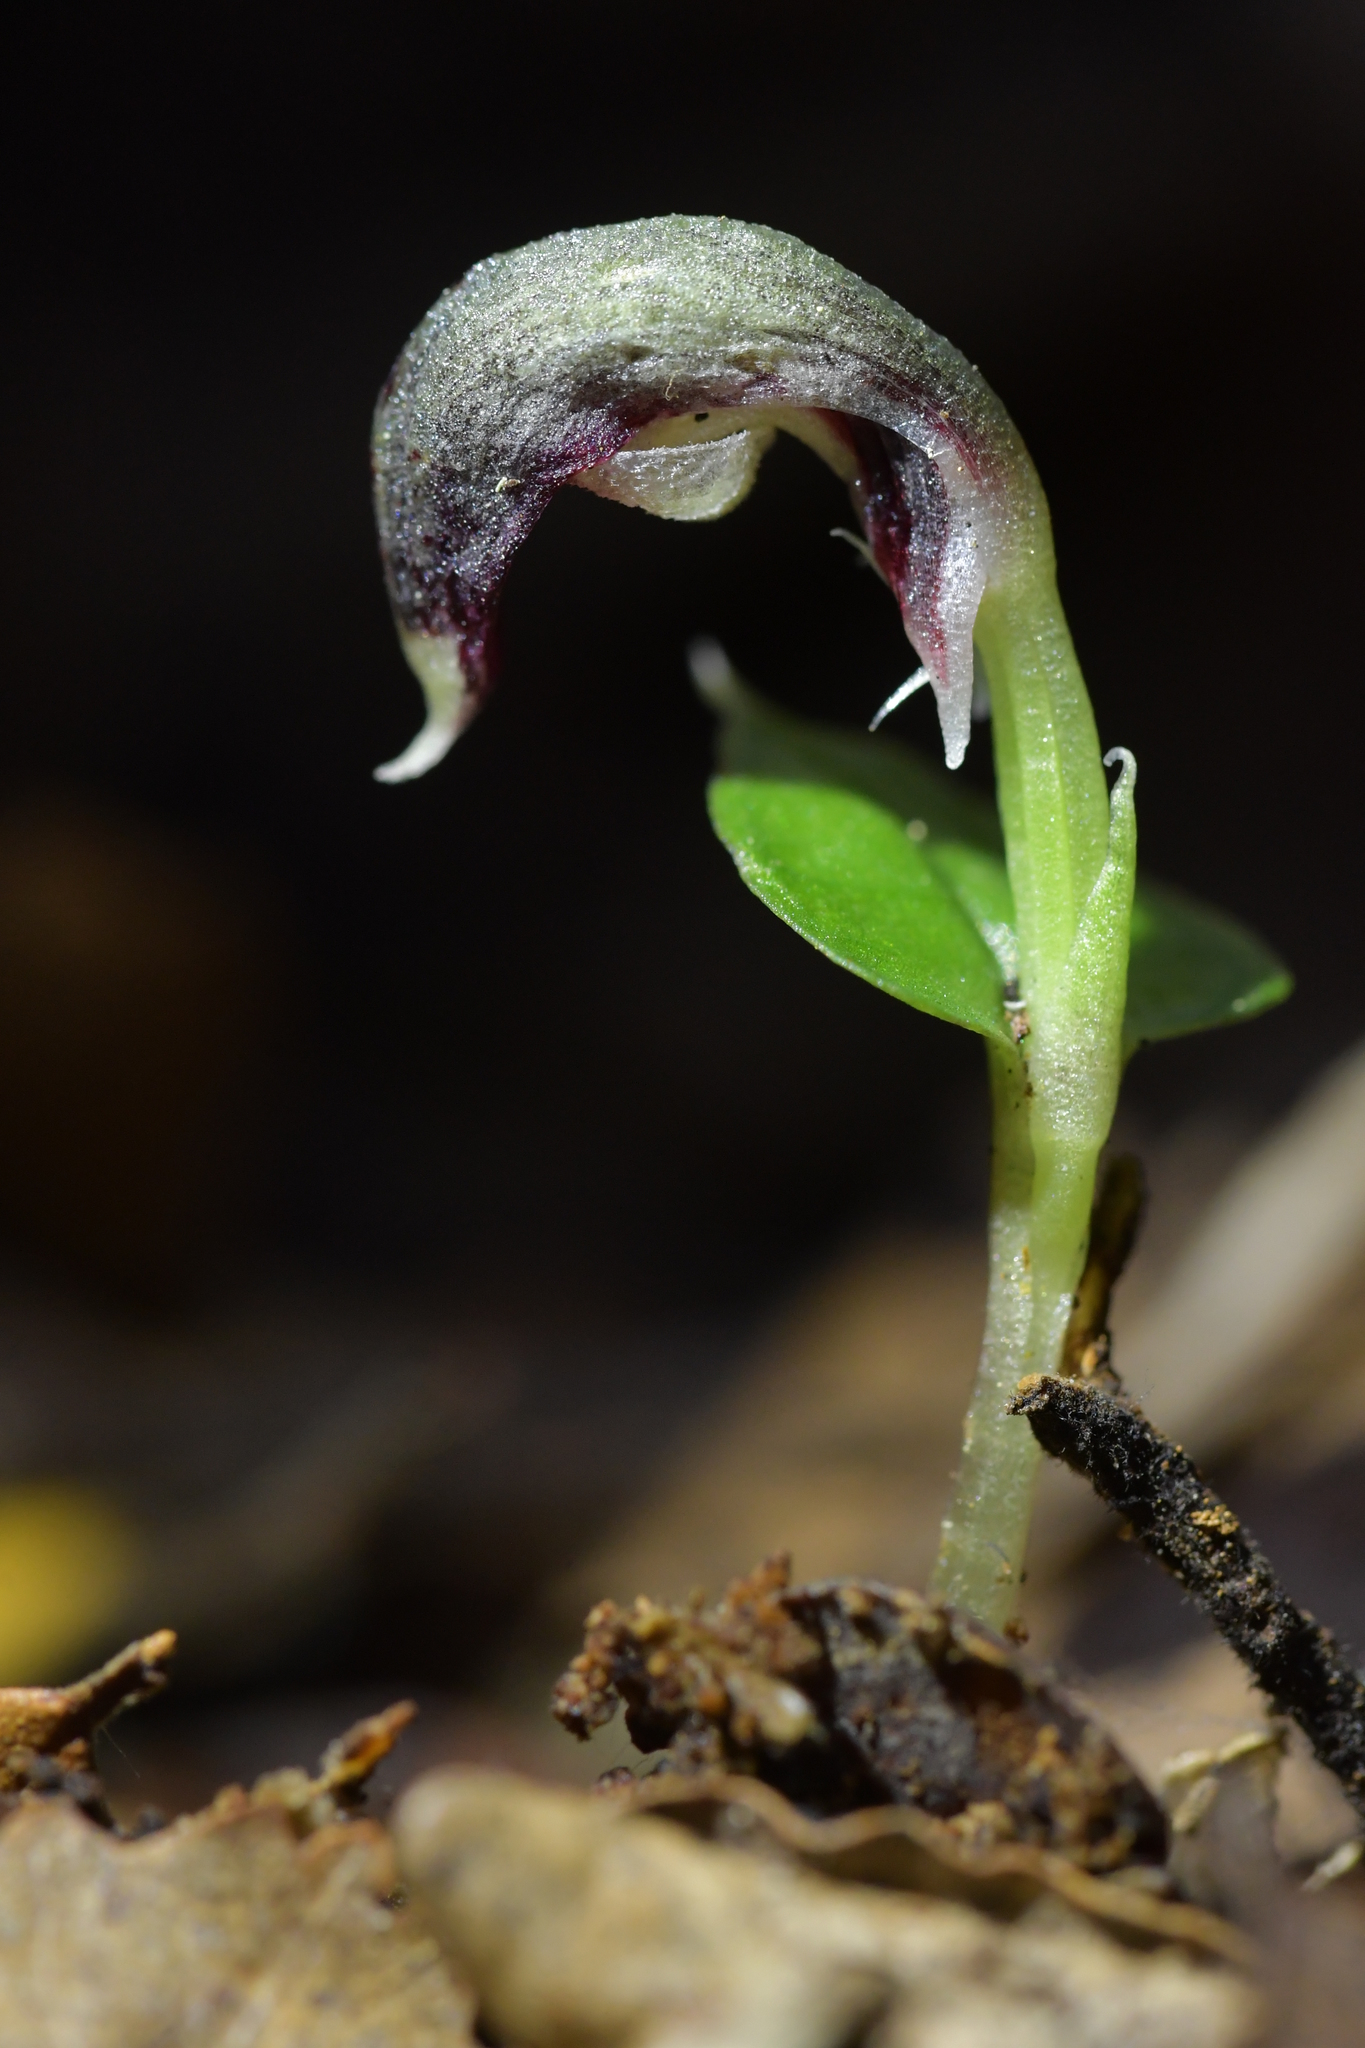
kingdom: Plantae
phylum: Tracheophyta
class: Liliopsida
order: Asparagales
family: Orchidaceae
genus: Corybas
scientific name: Corybas cheesemanii
